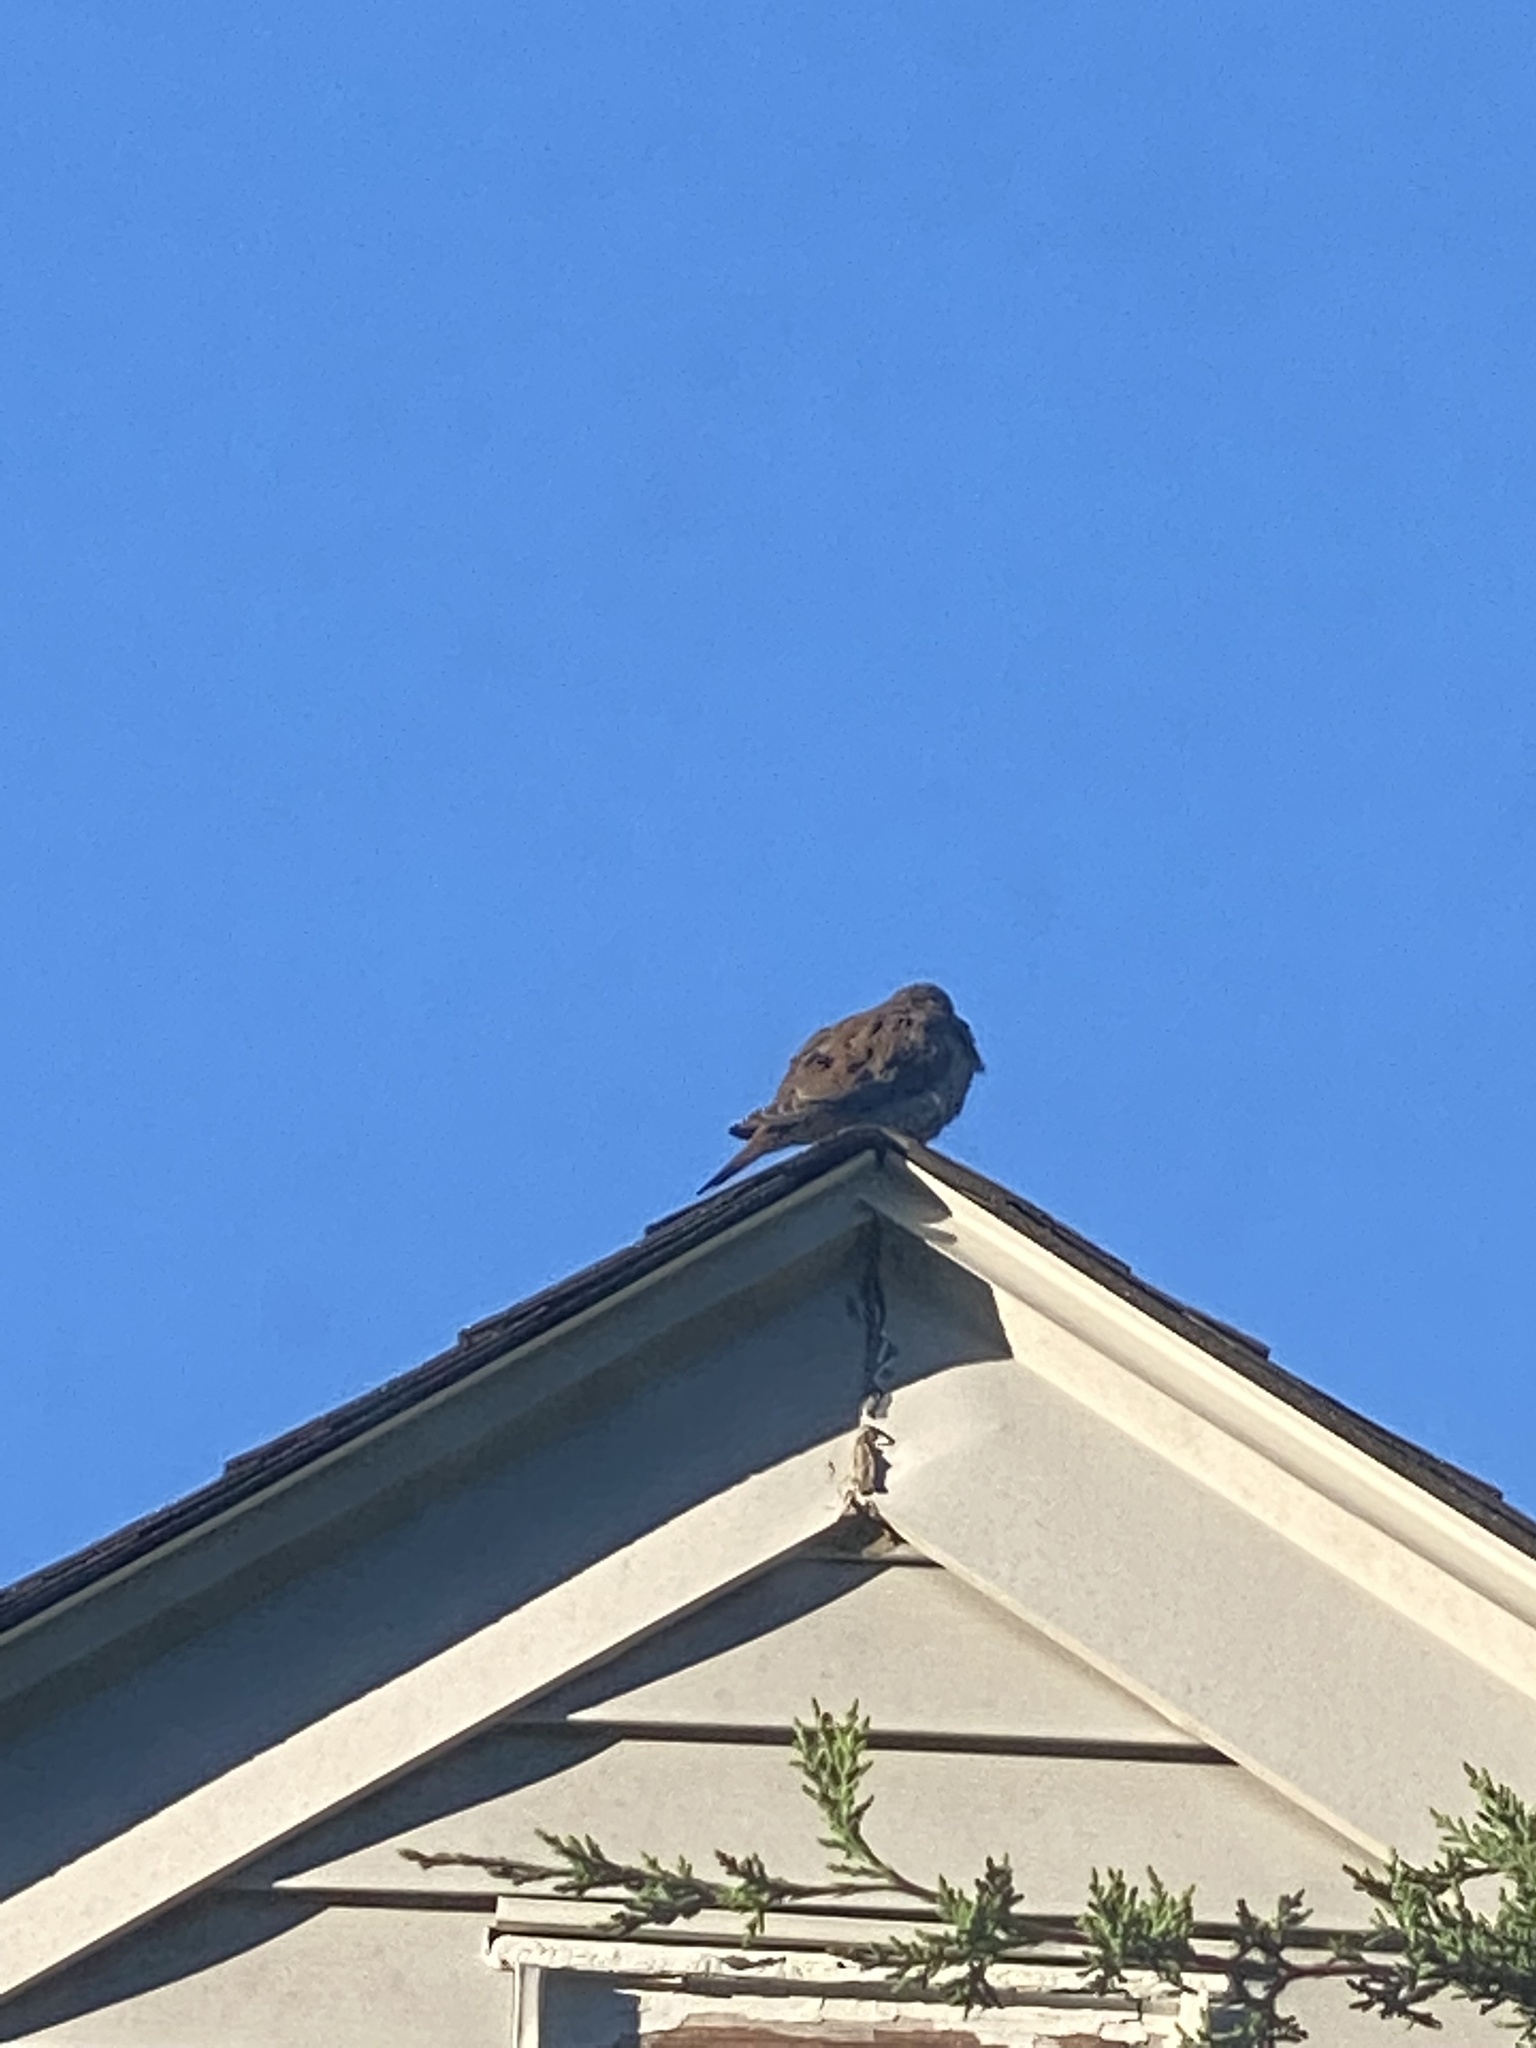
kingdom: Animalia
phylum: Chordata
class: Aves
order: Columbiformes
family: Columbidae
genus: Zenaida
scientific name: Zenaida macroura
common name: Mourning dove
